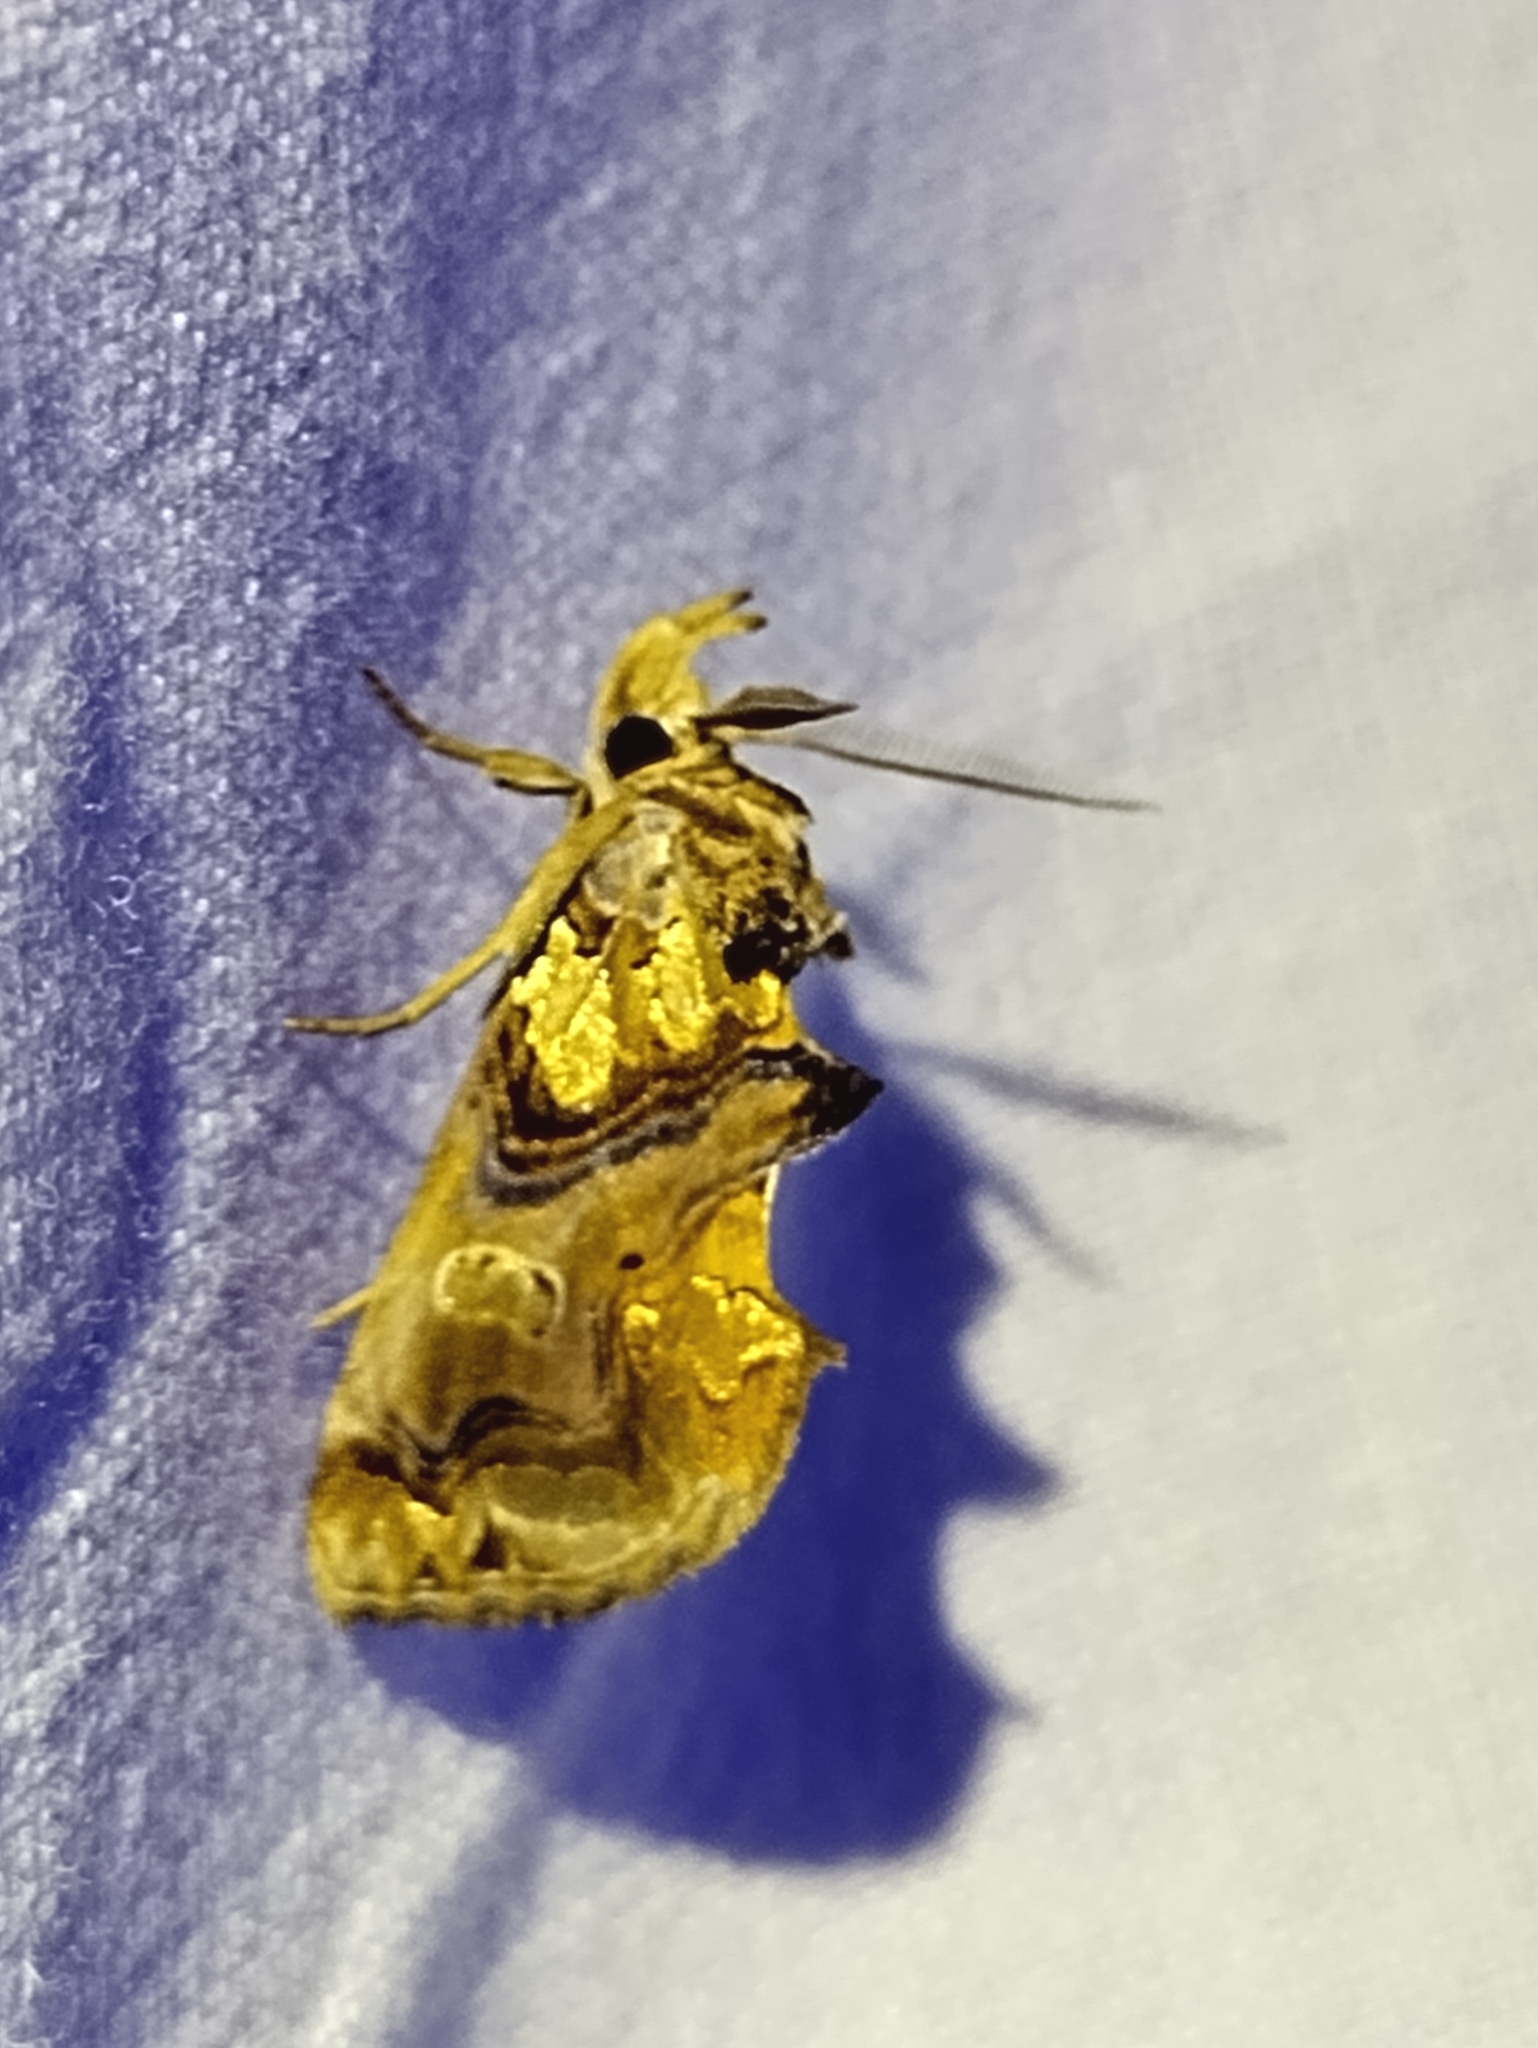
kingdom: Animalia
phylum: Arthropoda
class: Insecta
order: Lepidoptera
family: Erebidae
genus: Plusiodonta
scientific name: Plusiodonta compressipalpis
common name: Moonseed moth
